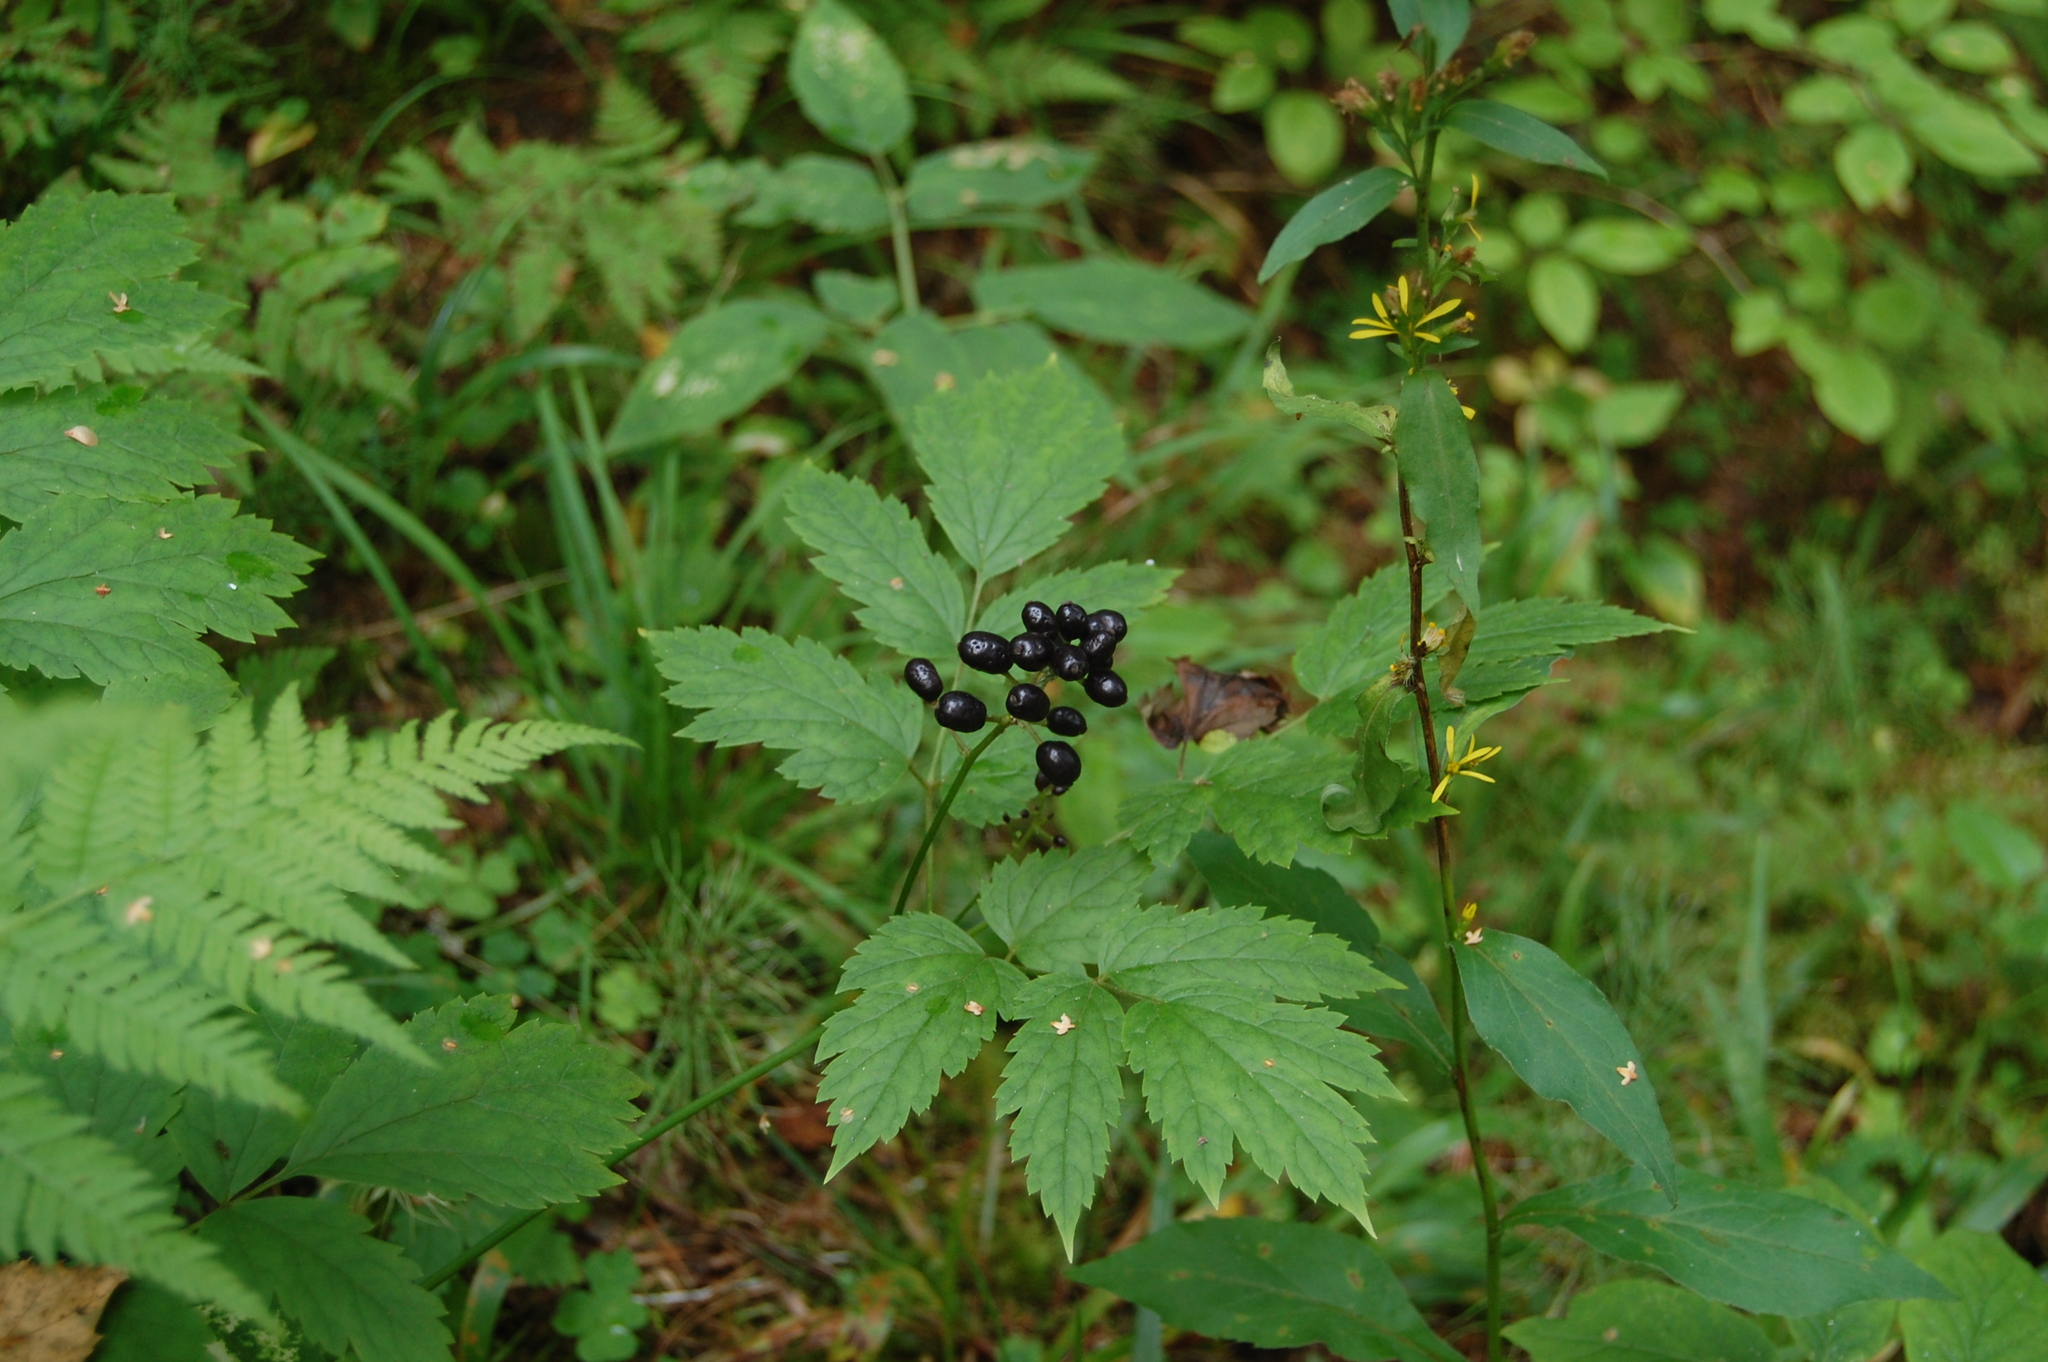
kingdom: Plantae
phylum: Tracheophyta
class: Magnoliopsida
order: Ranunculales
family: Ranunculaceae
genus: Actaea
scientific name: Actaea spicata
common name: Baneberry
